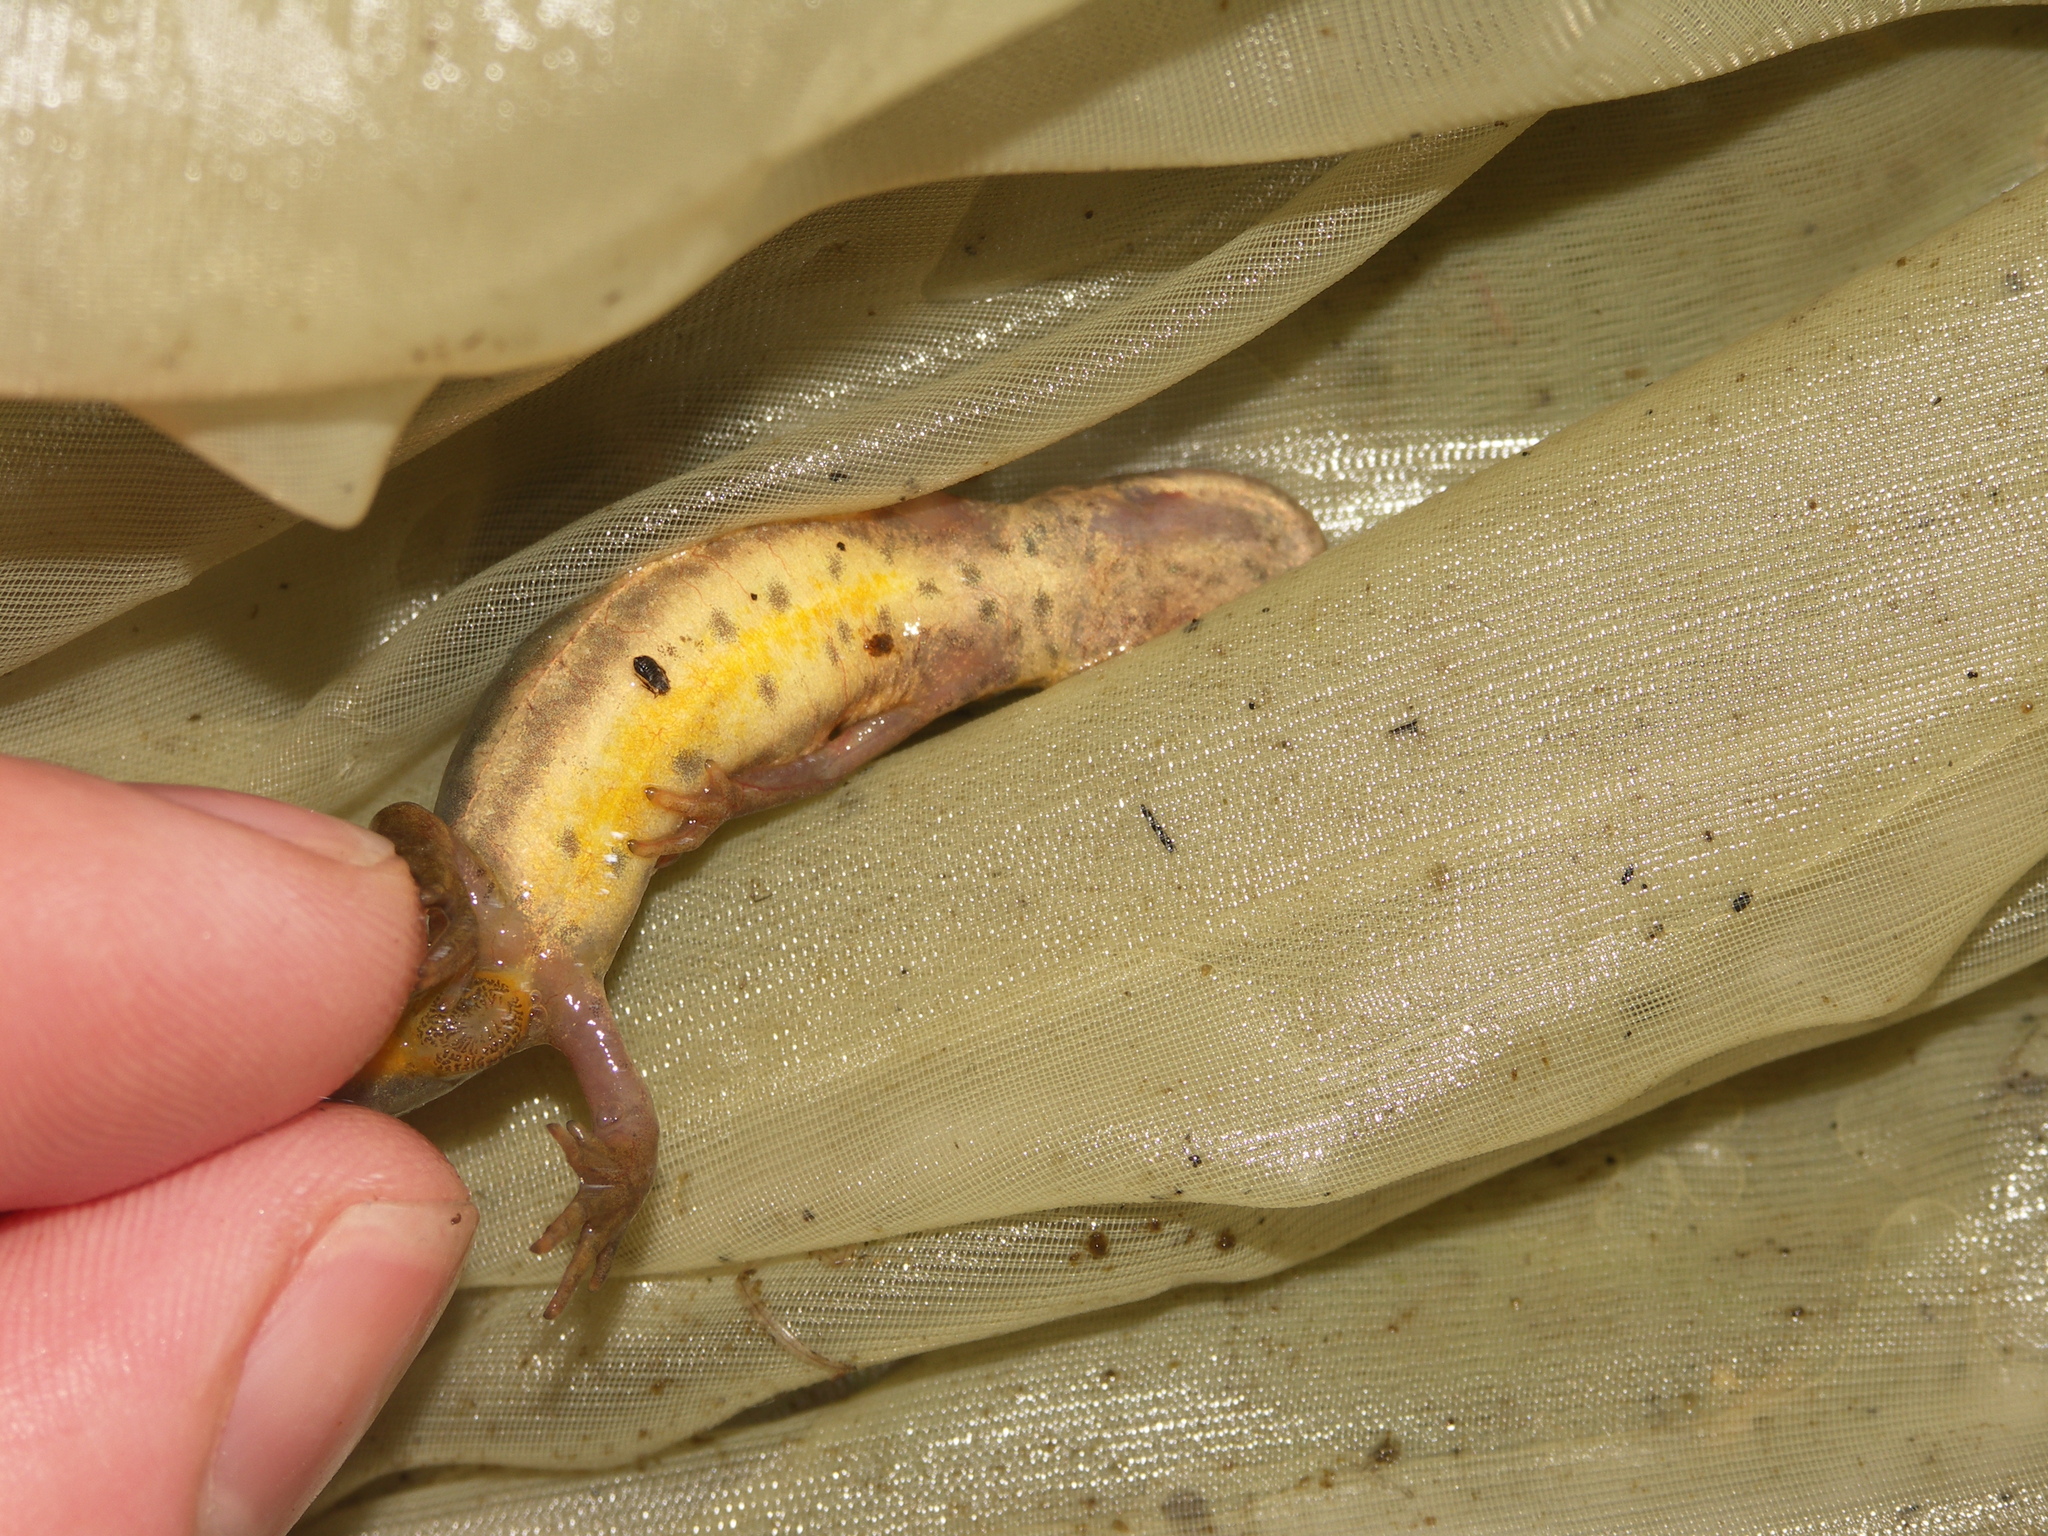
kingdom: Animalia
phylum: Chordata
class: Amphibia
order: Caudata
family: Salamandridae
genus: Lissotriton
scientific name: Lissotriton vulgaris
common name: Smooth newt
